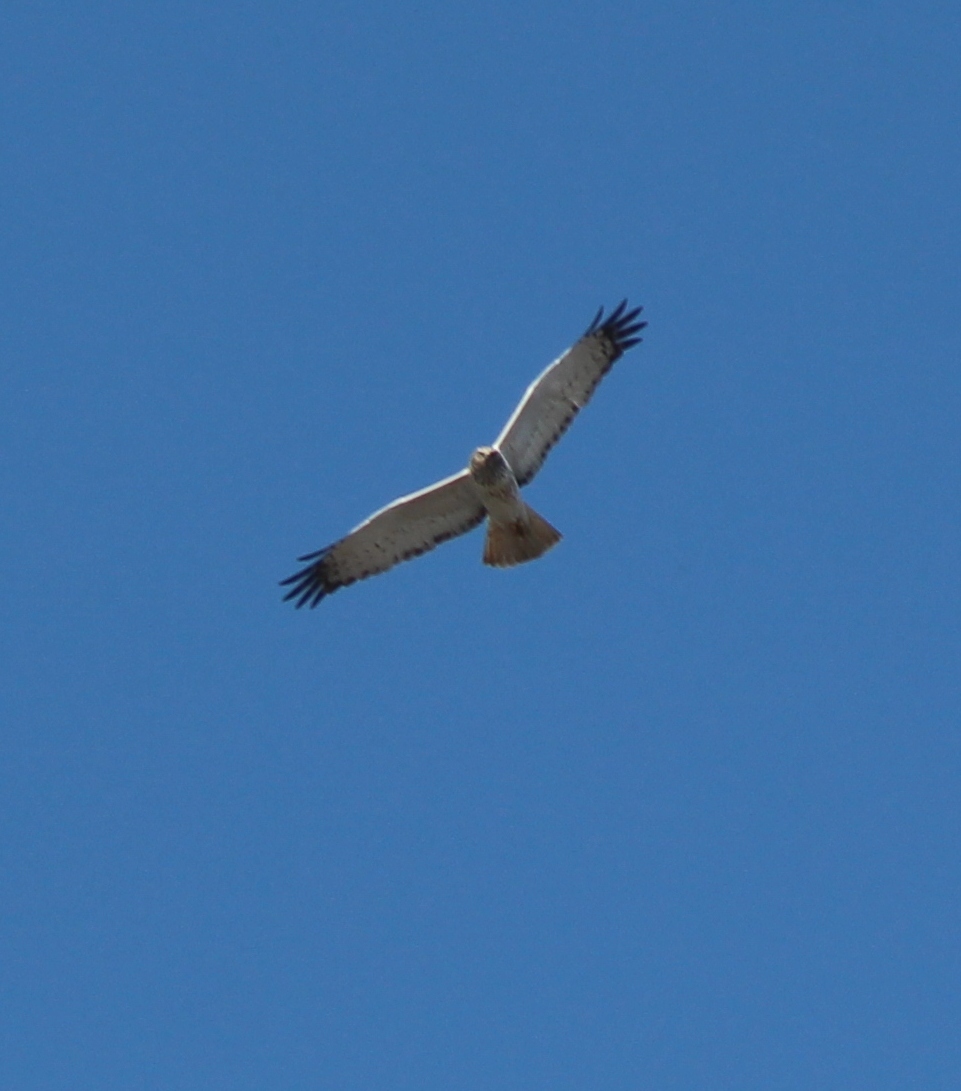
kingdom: Animalia
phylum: Chordata
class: Aves
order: Accipitriformes
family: Accipitridae
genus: Circus
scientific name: Circus spilonotus
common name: Eastern marsh-harrier
